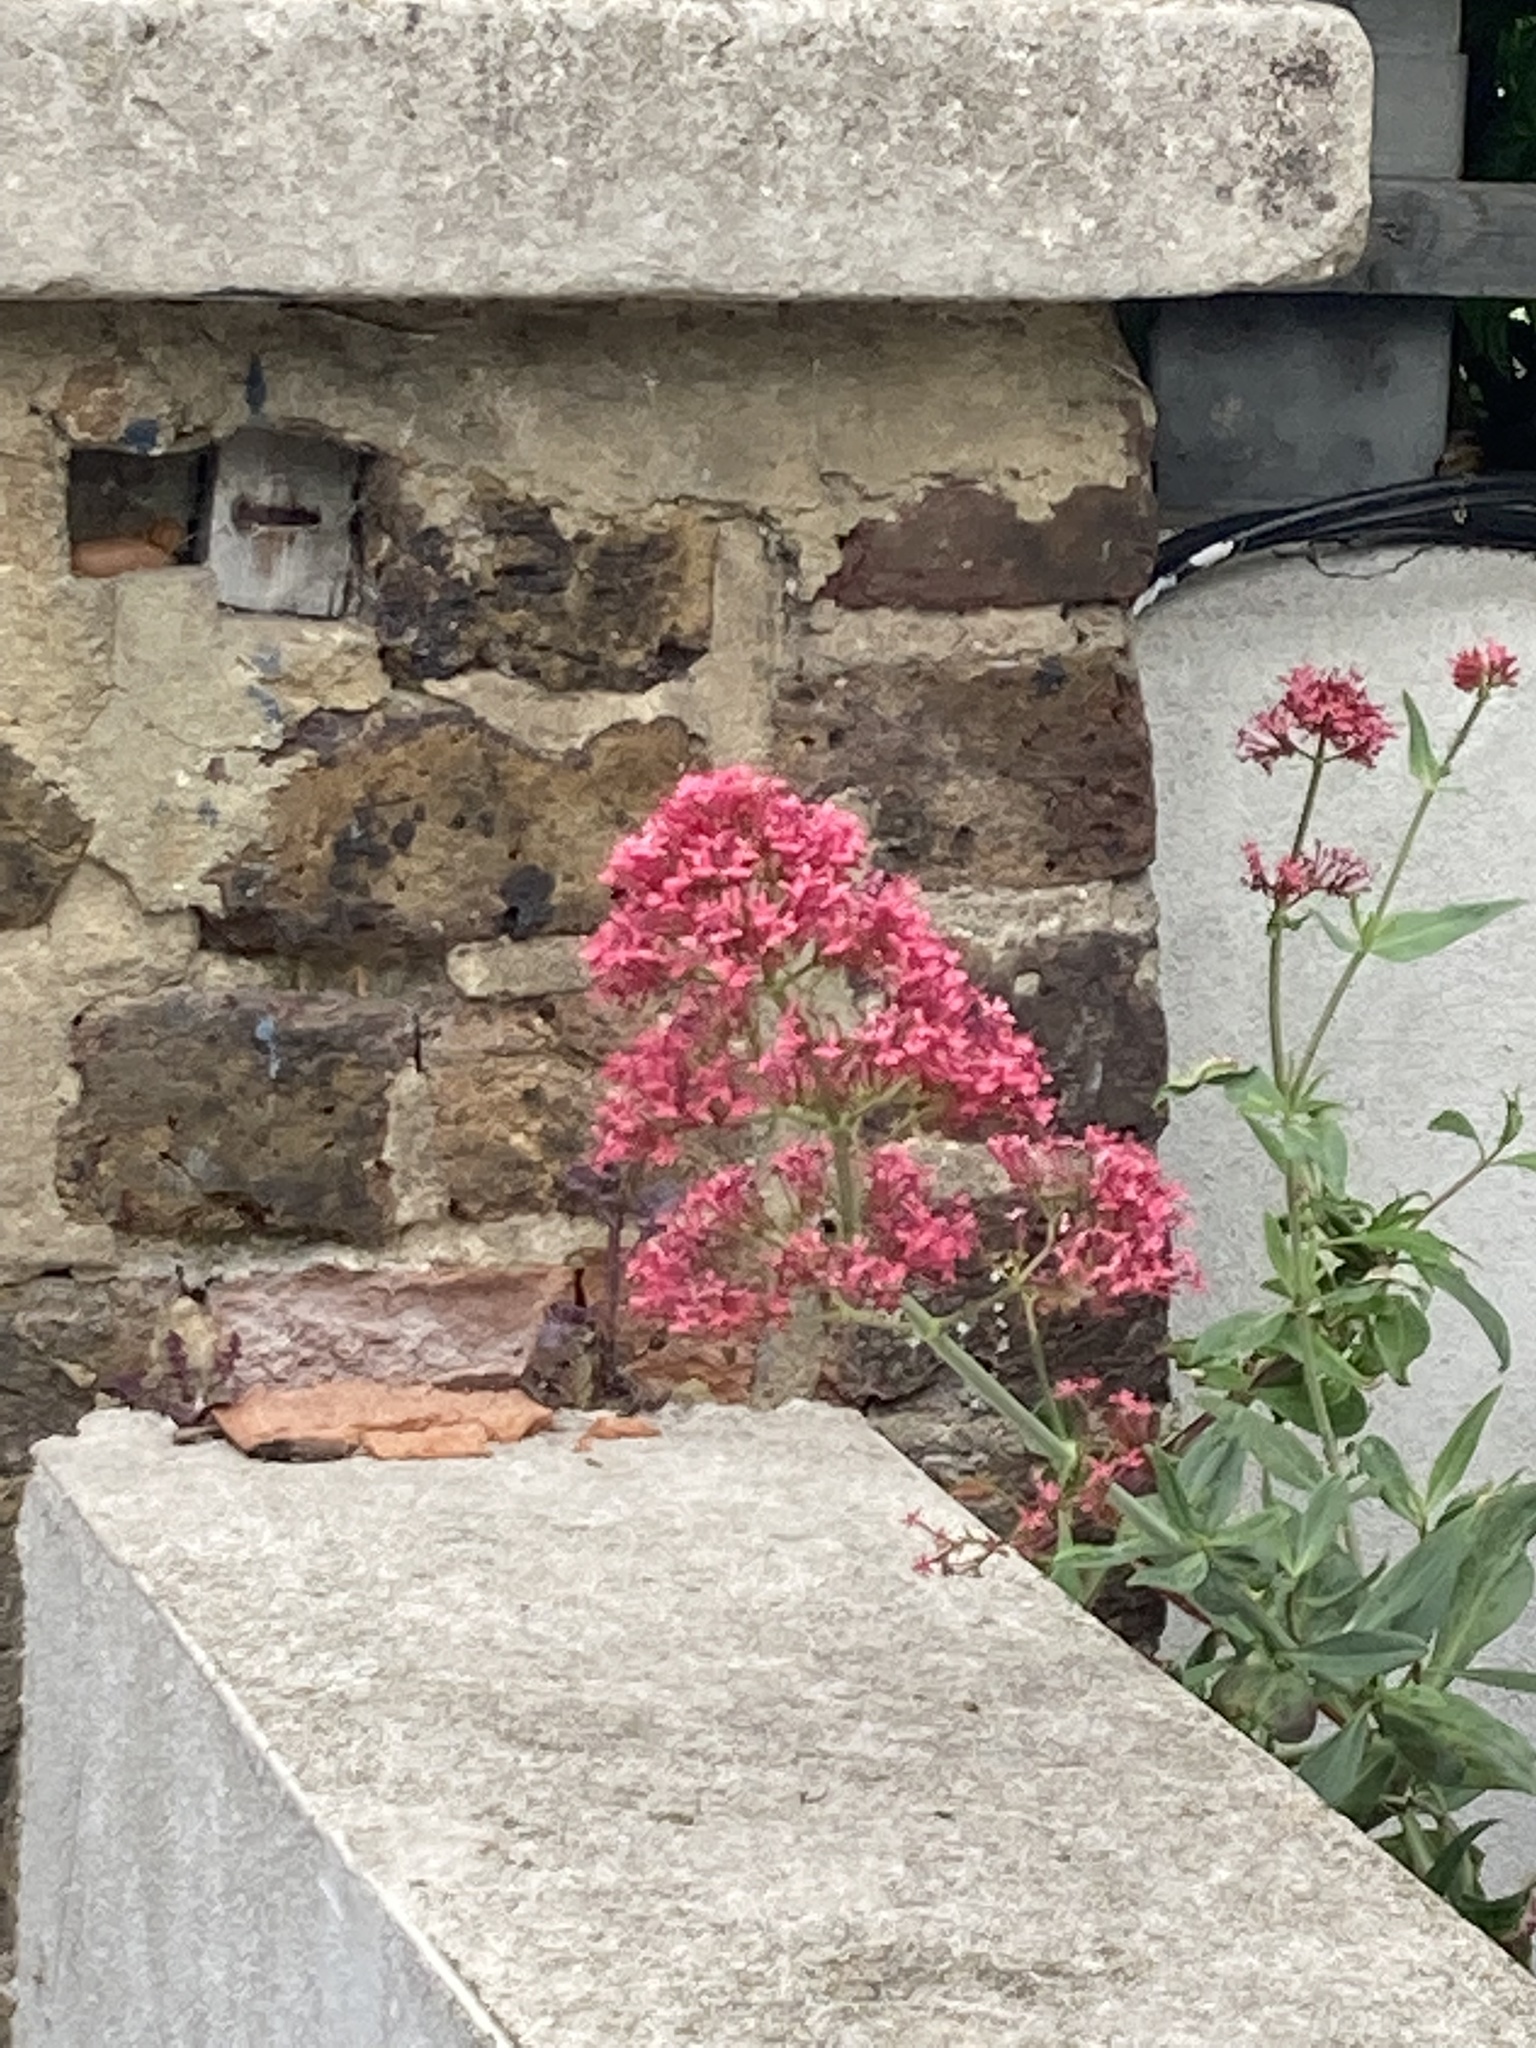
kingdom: Plantae
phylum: Tracheophyta
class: Magnoliopsida
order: Dipsacales
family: Caprifoliaceae
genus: Centranthus
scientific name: Centranthus ruber
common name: Red valerian
